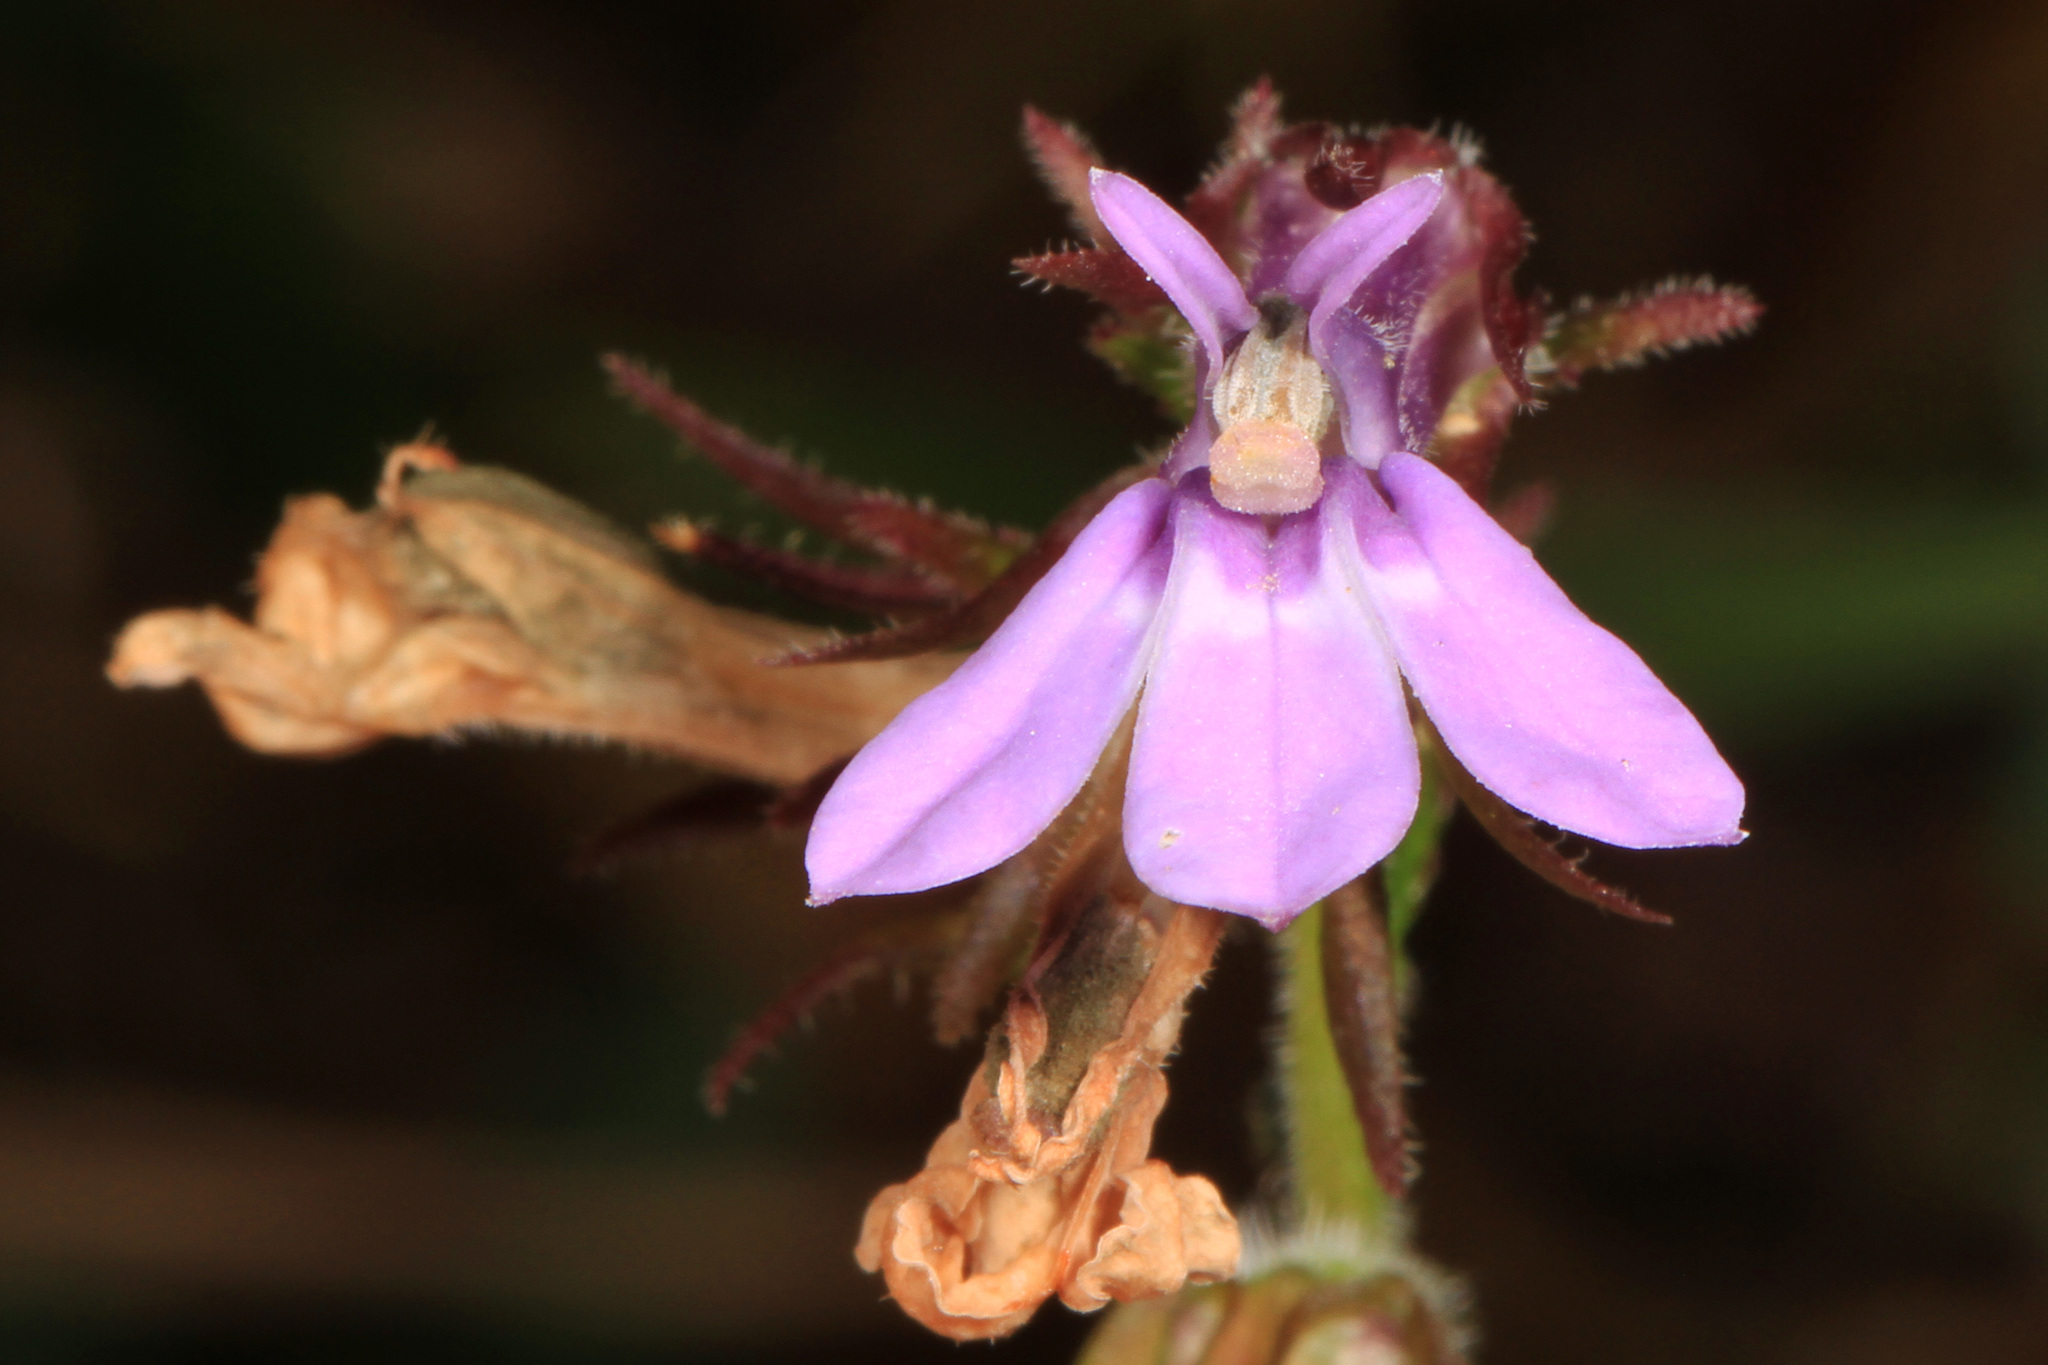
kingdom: Plantae
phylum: Tracheophyta
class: Magnoliopsida
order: Asterales
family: Campanulaceae
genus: Lobelia
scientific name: Lobelia puberula
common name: Purple dewdrop
